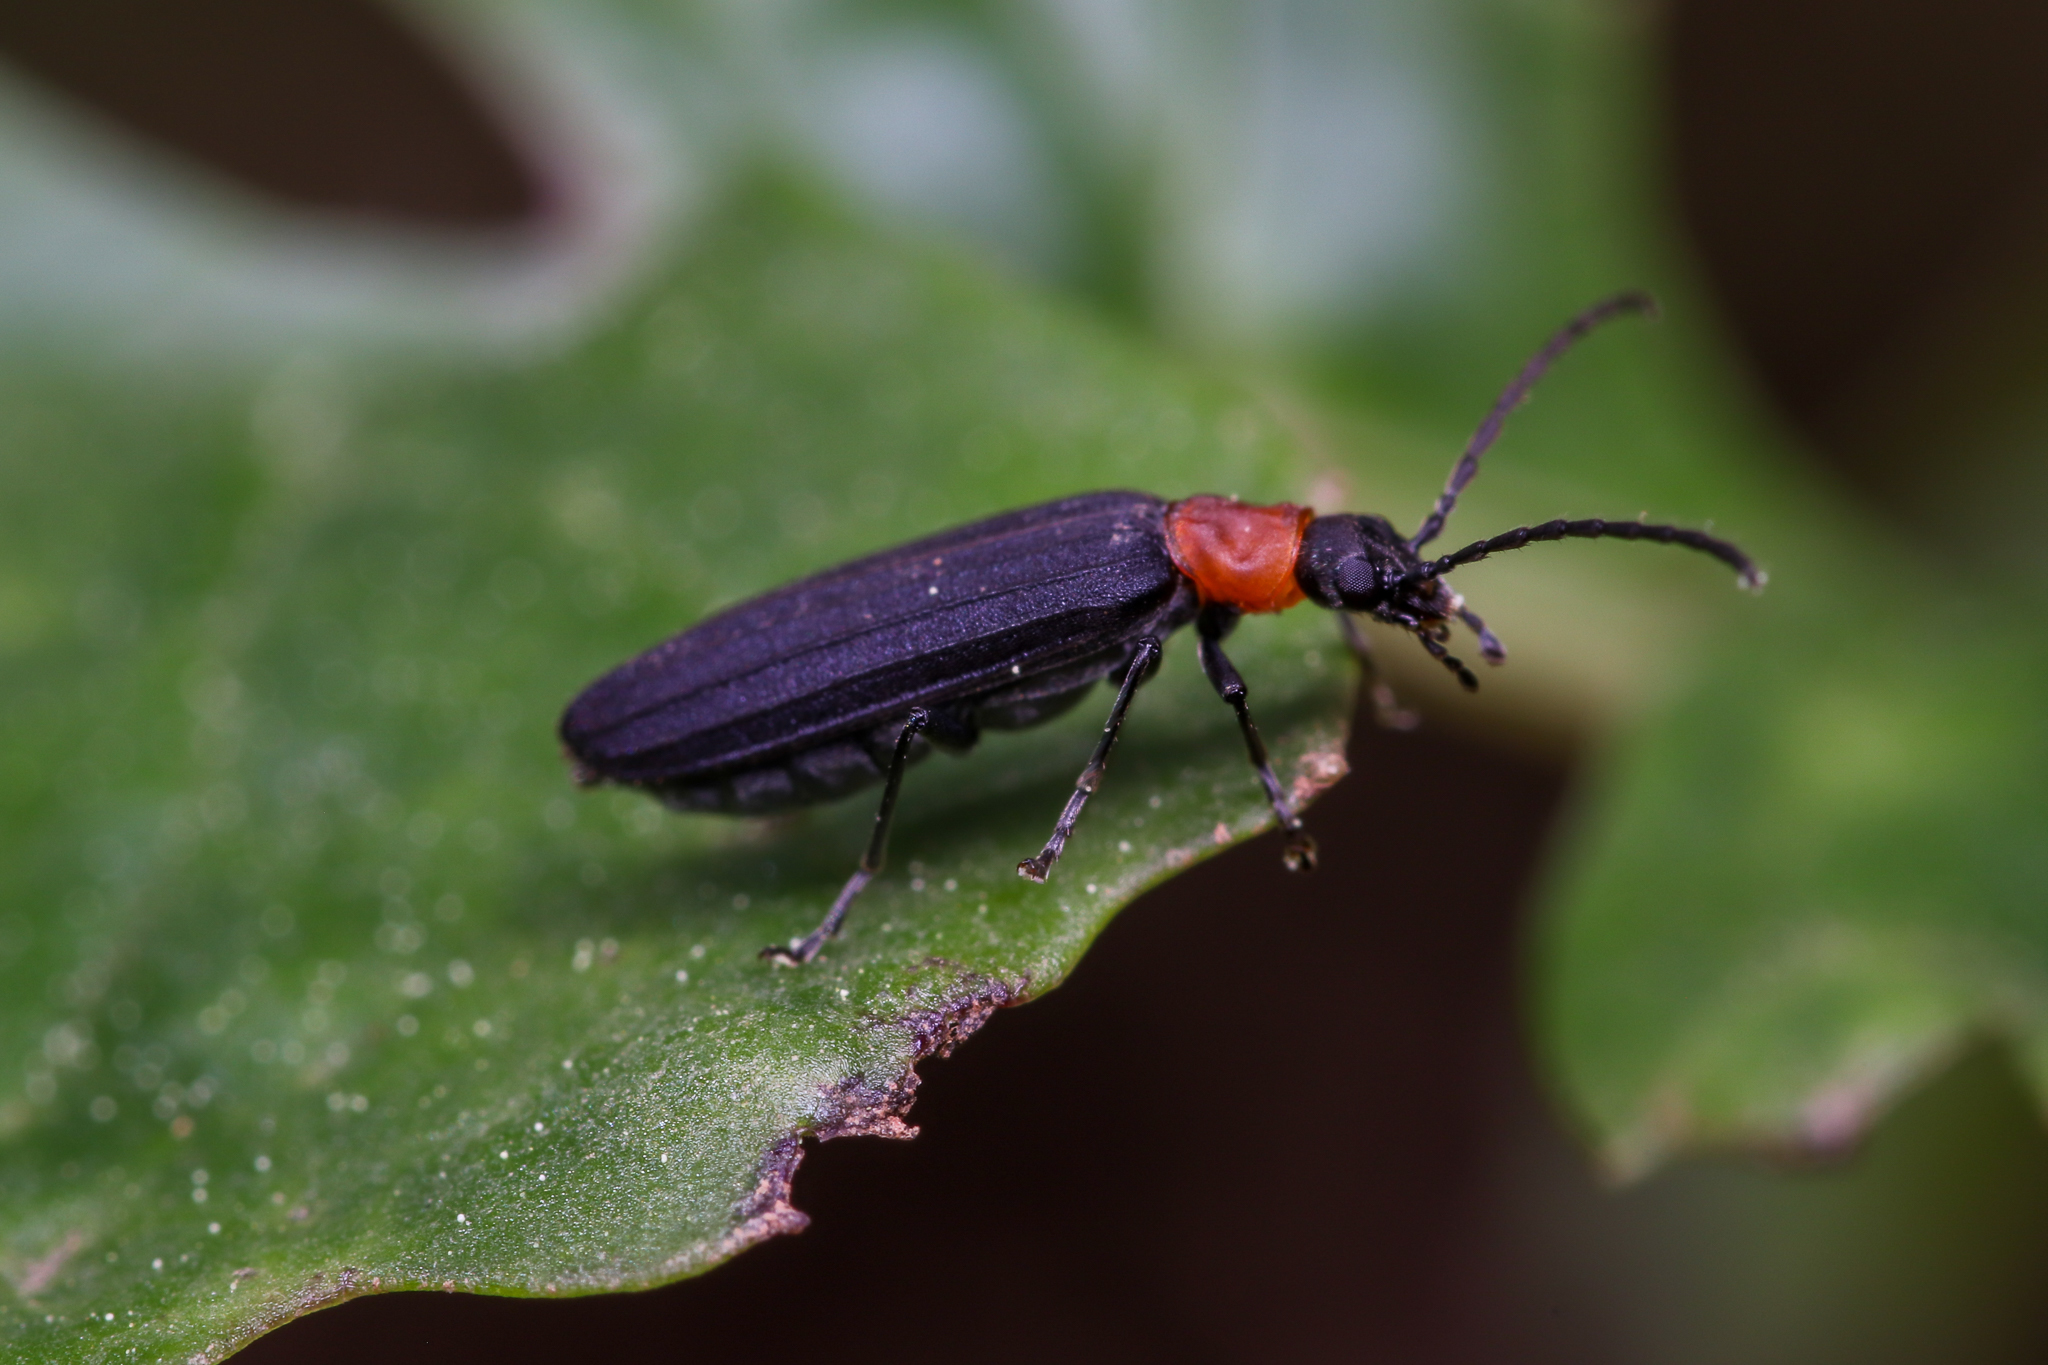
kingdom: Animalia
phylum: Arthropoda
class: Insecta
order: Coleoptera
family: Oedemeridae
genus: Ischnomera
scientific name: Ischnomera
